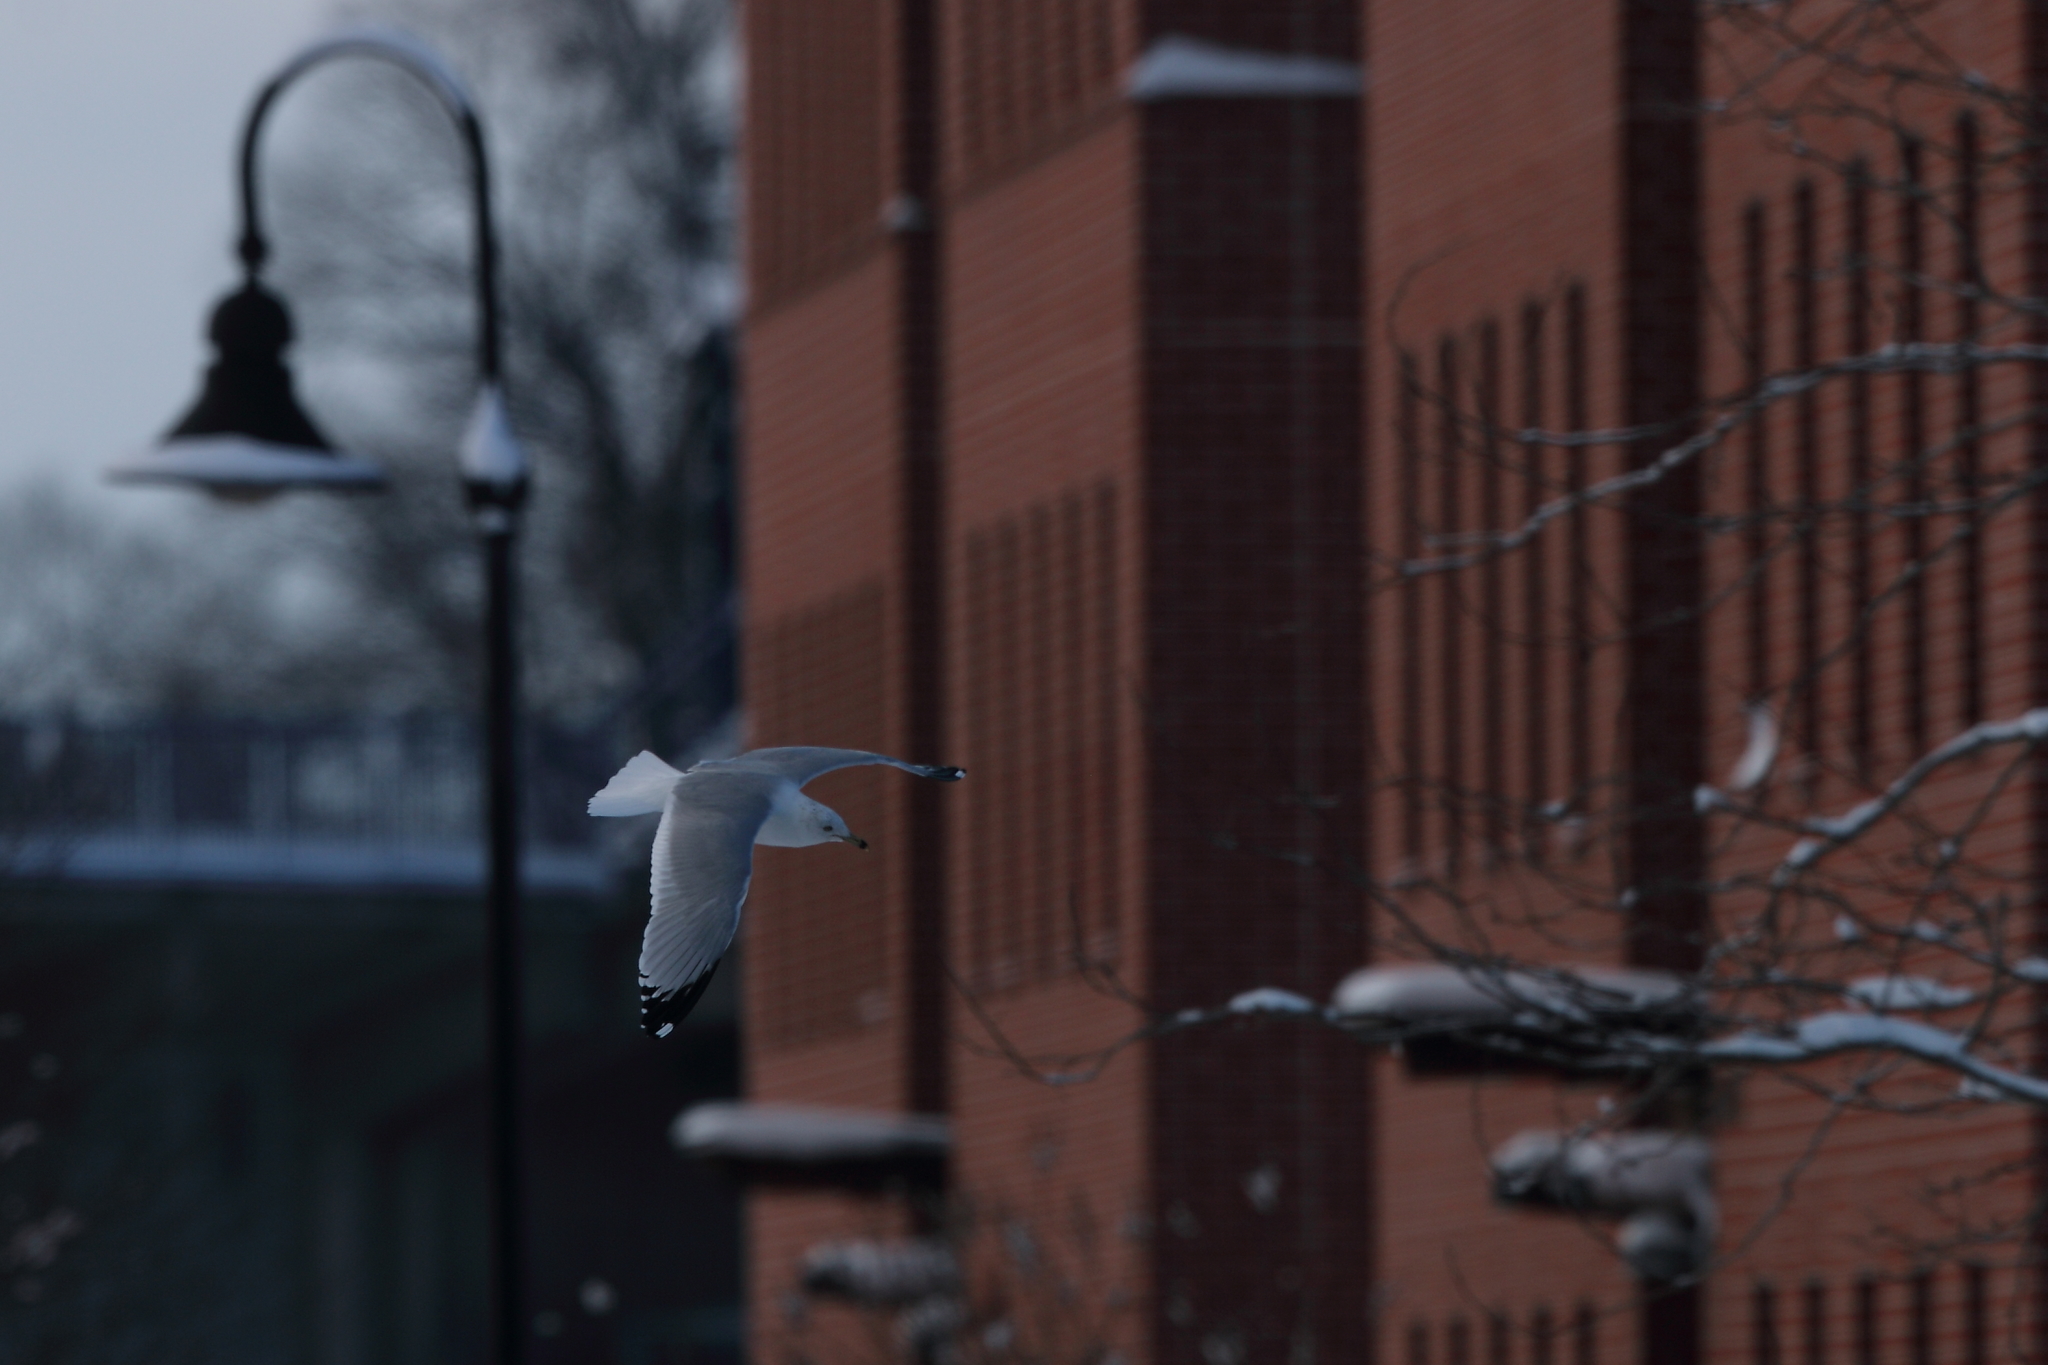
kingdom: Animalia
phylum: Chordata
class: Aves
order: Charadriiformes
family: Laridae
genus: Larus
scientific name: Larus delawarensis
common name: Ring-billed gull
